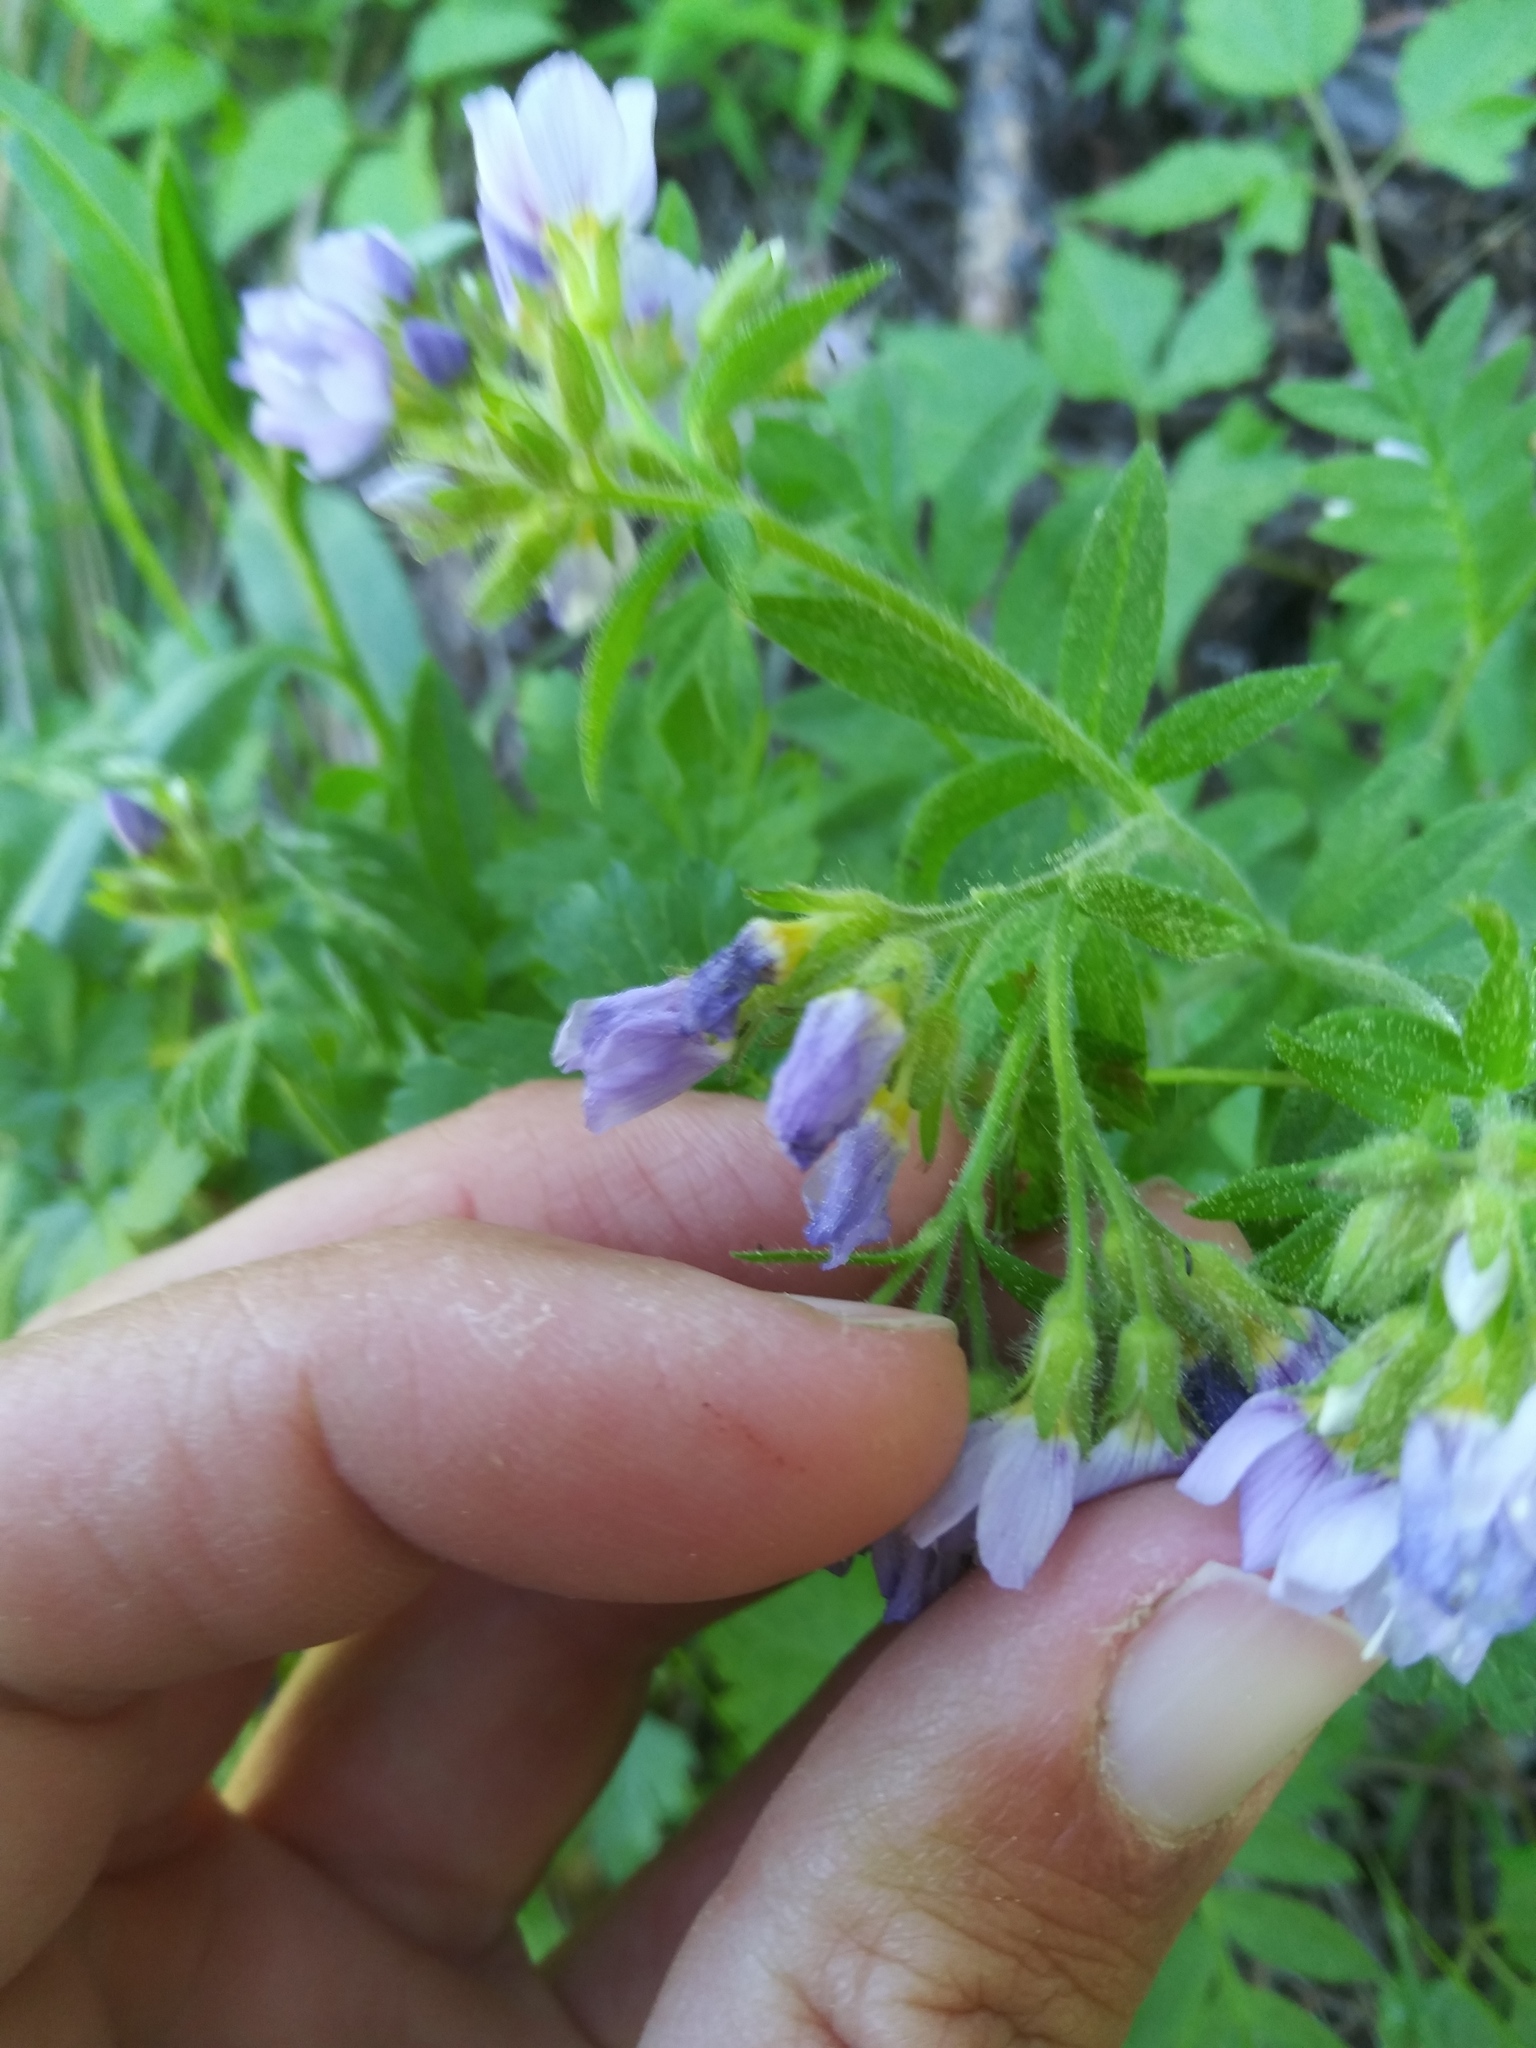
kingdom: Plantae
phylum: Tracheophyta
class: Magnoliopsida
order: Ericales
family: Polemoniaceae
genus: Polemonium
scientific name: Polemonium californicum
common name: California jacob's ladder
